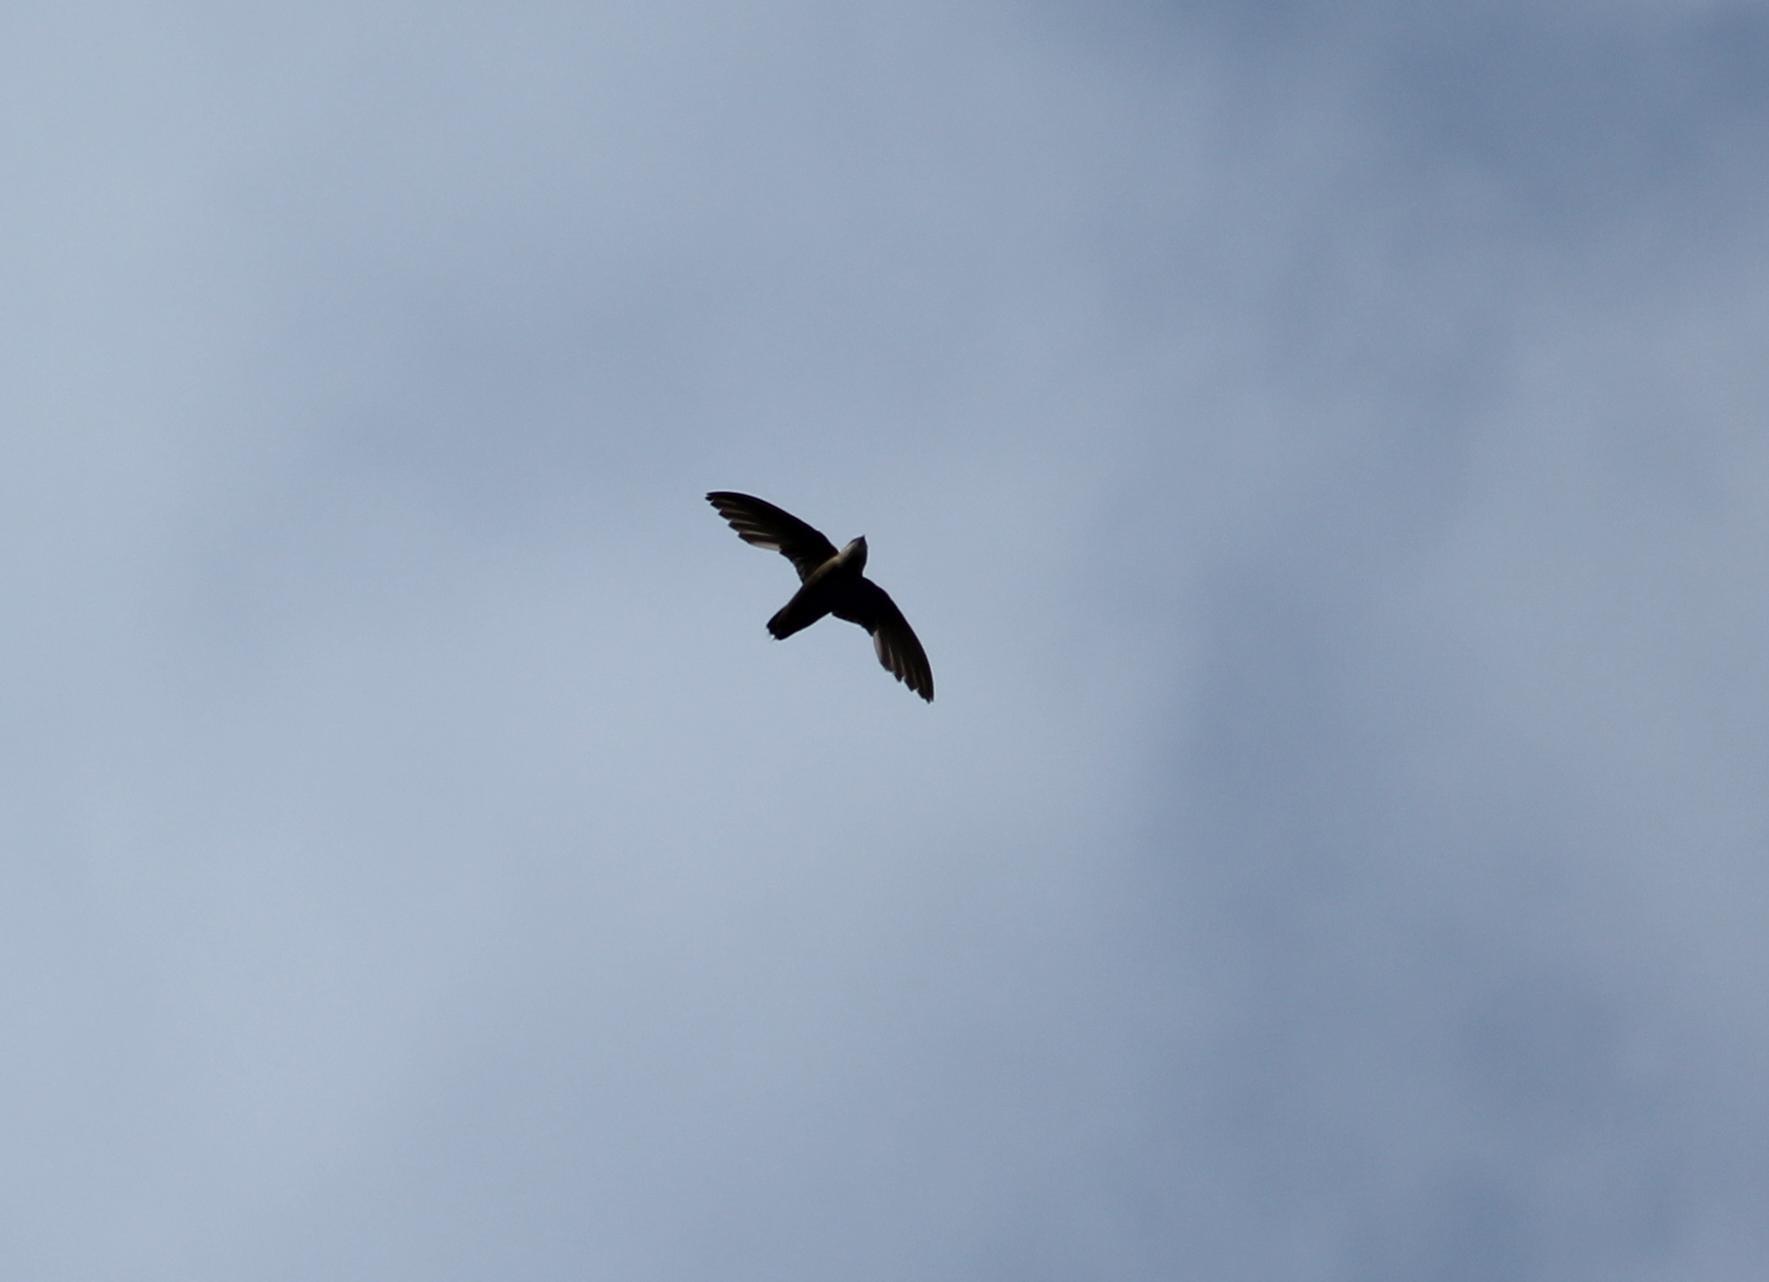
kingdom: Animalia
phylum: Chordata
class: Aves
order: Apodiformes
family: Apodidae
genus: Chaetura
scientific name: Chaetura pelagica
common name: Chimney swift
